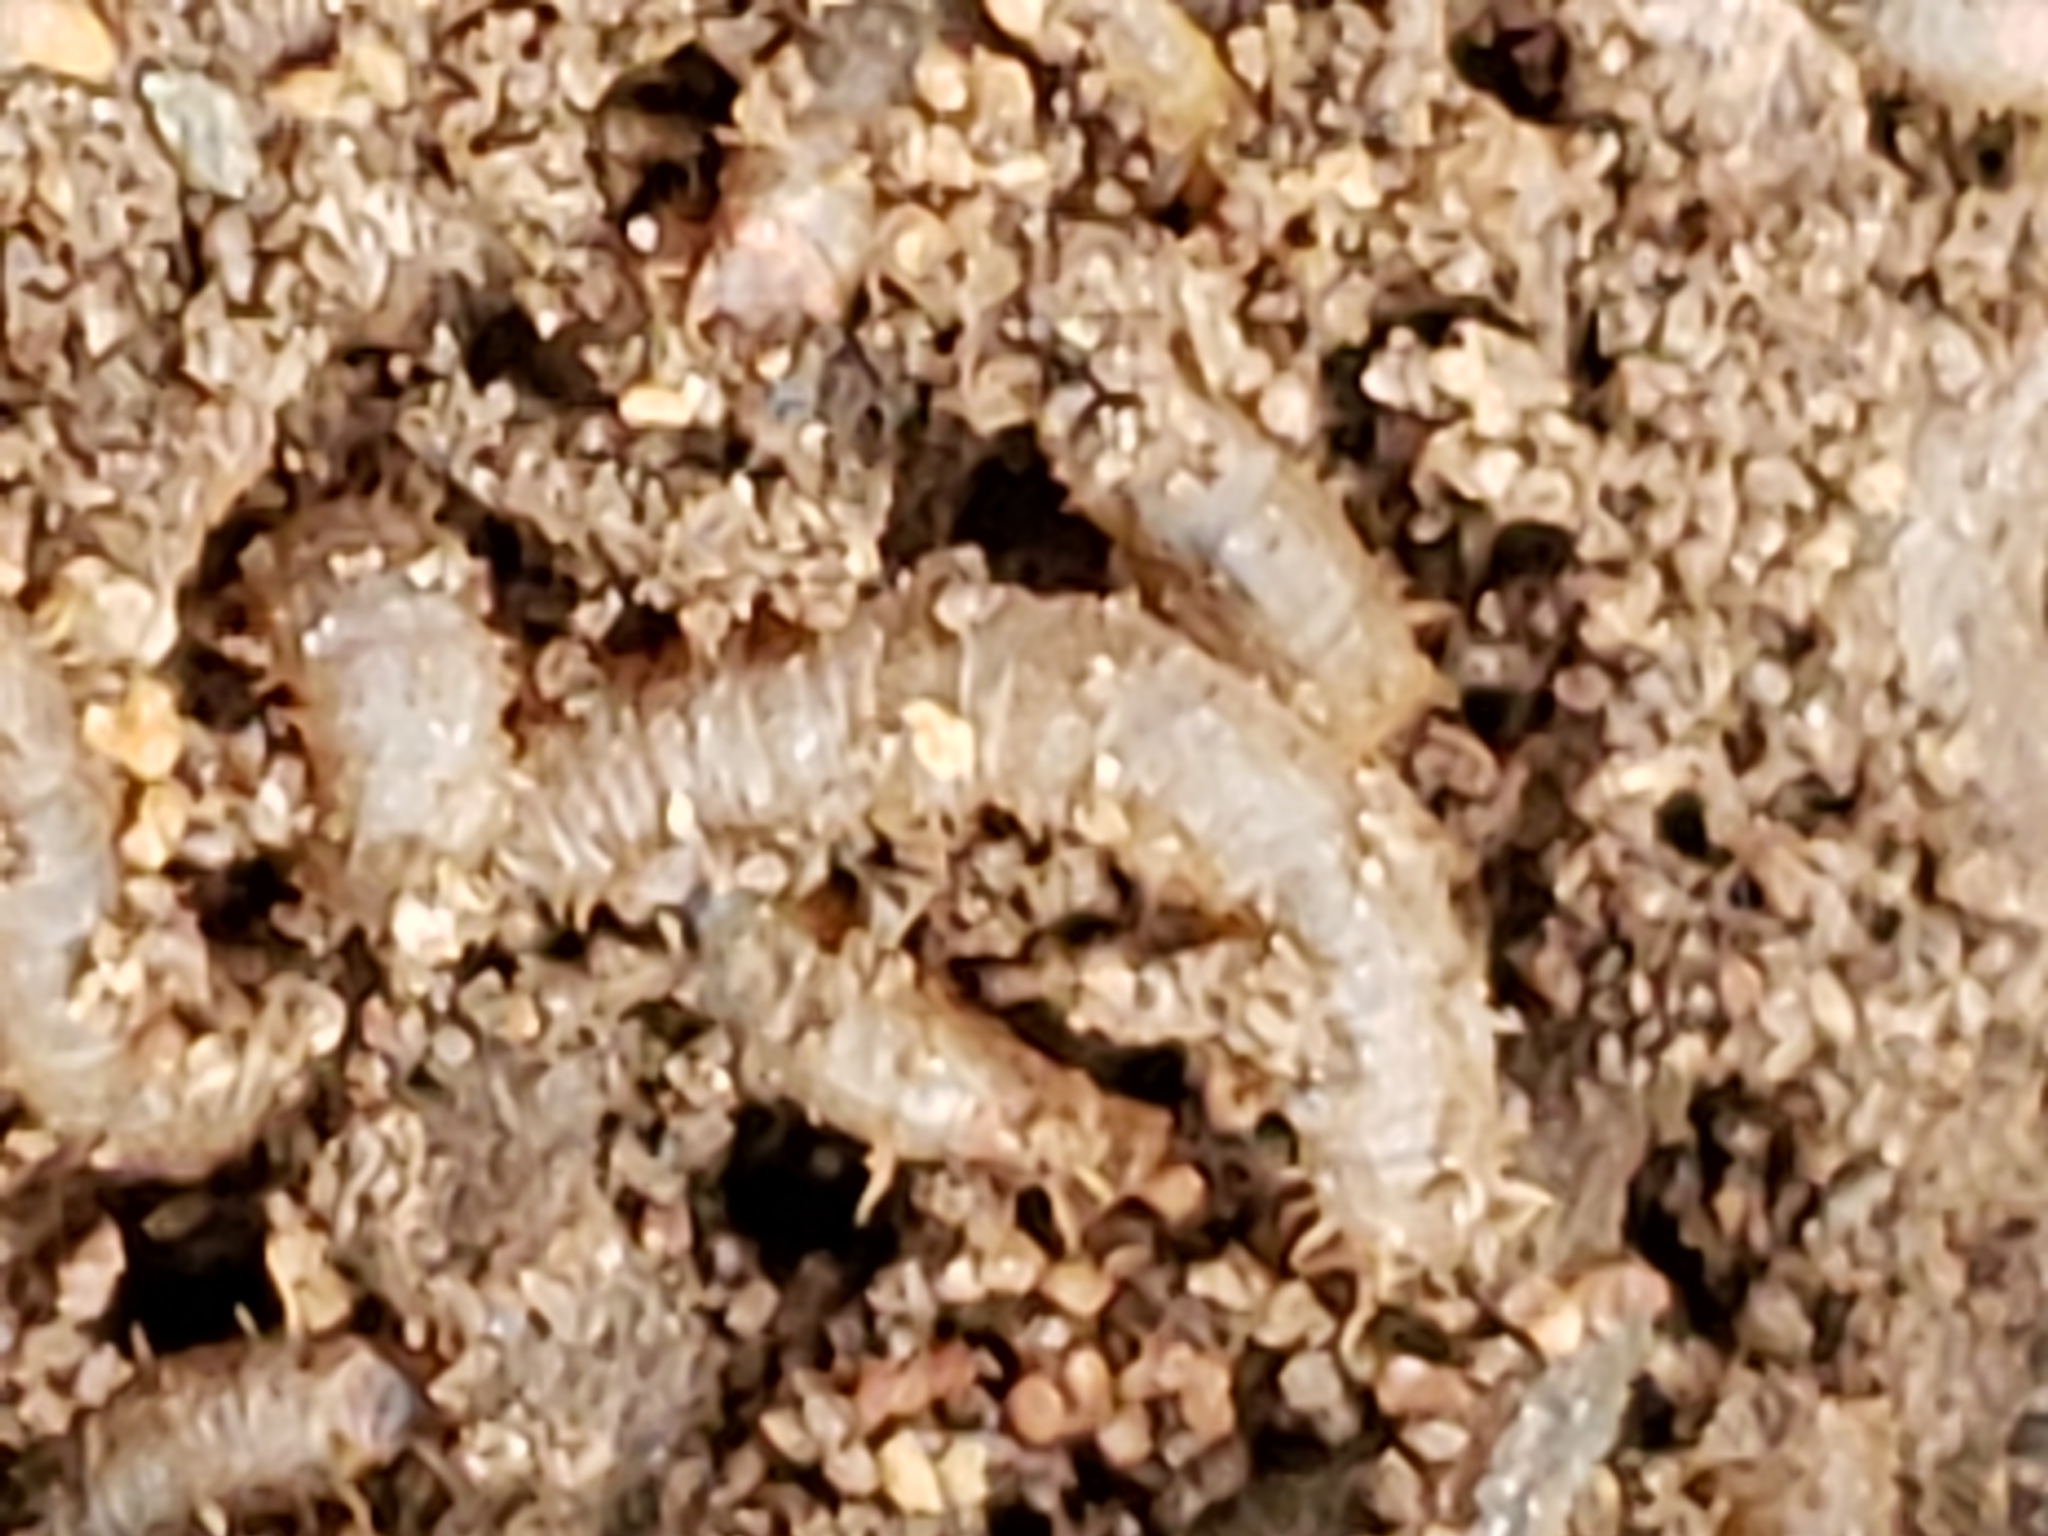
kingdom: Animalia
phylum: Arthropoda
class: Insecta
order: Diptera
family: Bibionidae
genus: Bibio
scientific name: Bibio
